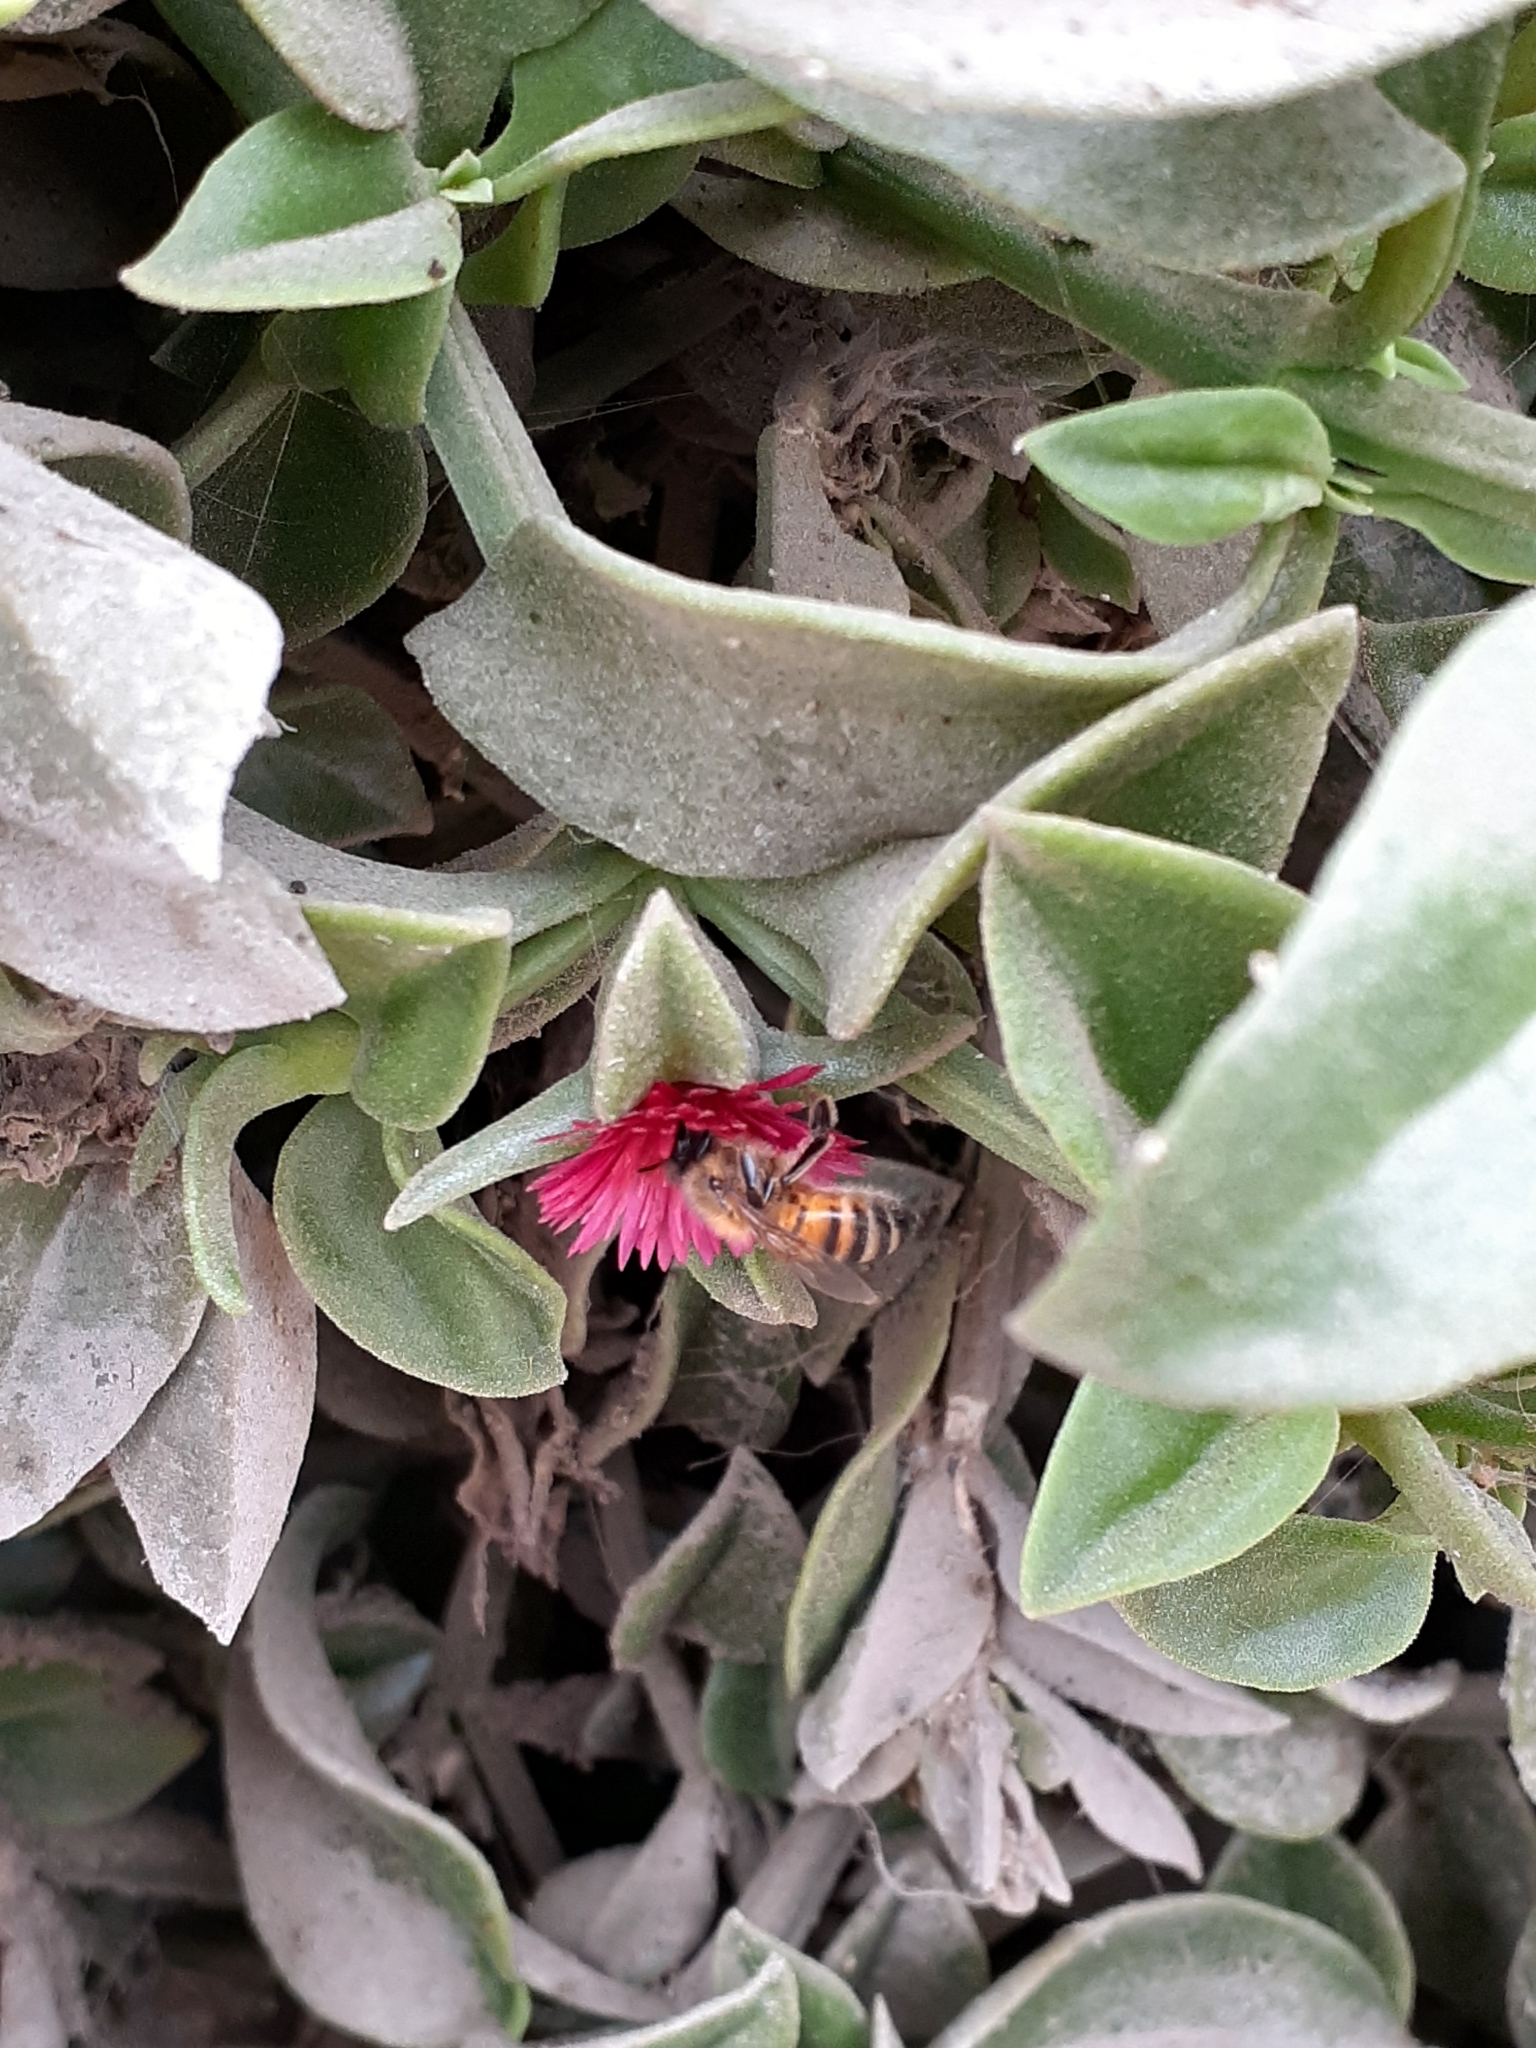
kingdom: Animalia
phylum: Arthropoda
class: Insecta
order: Hymenoptera
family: Apidae
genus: Apis
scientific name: Apis mellifera
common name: Honey bee
